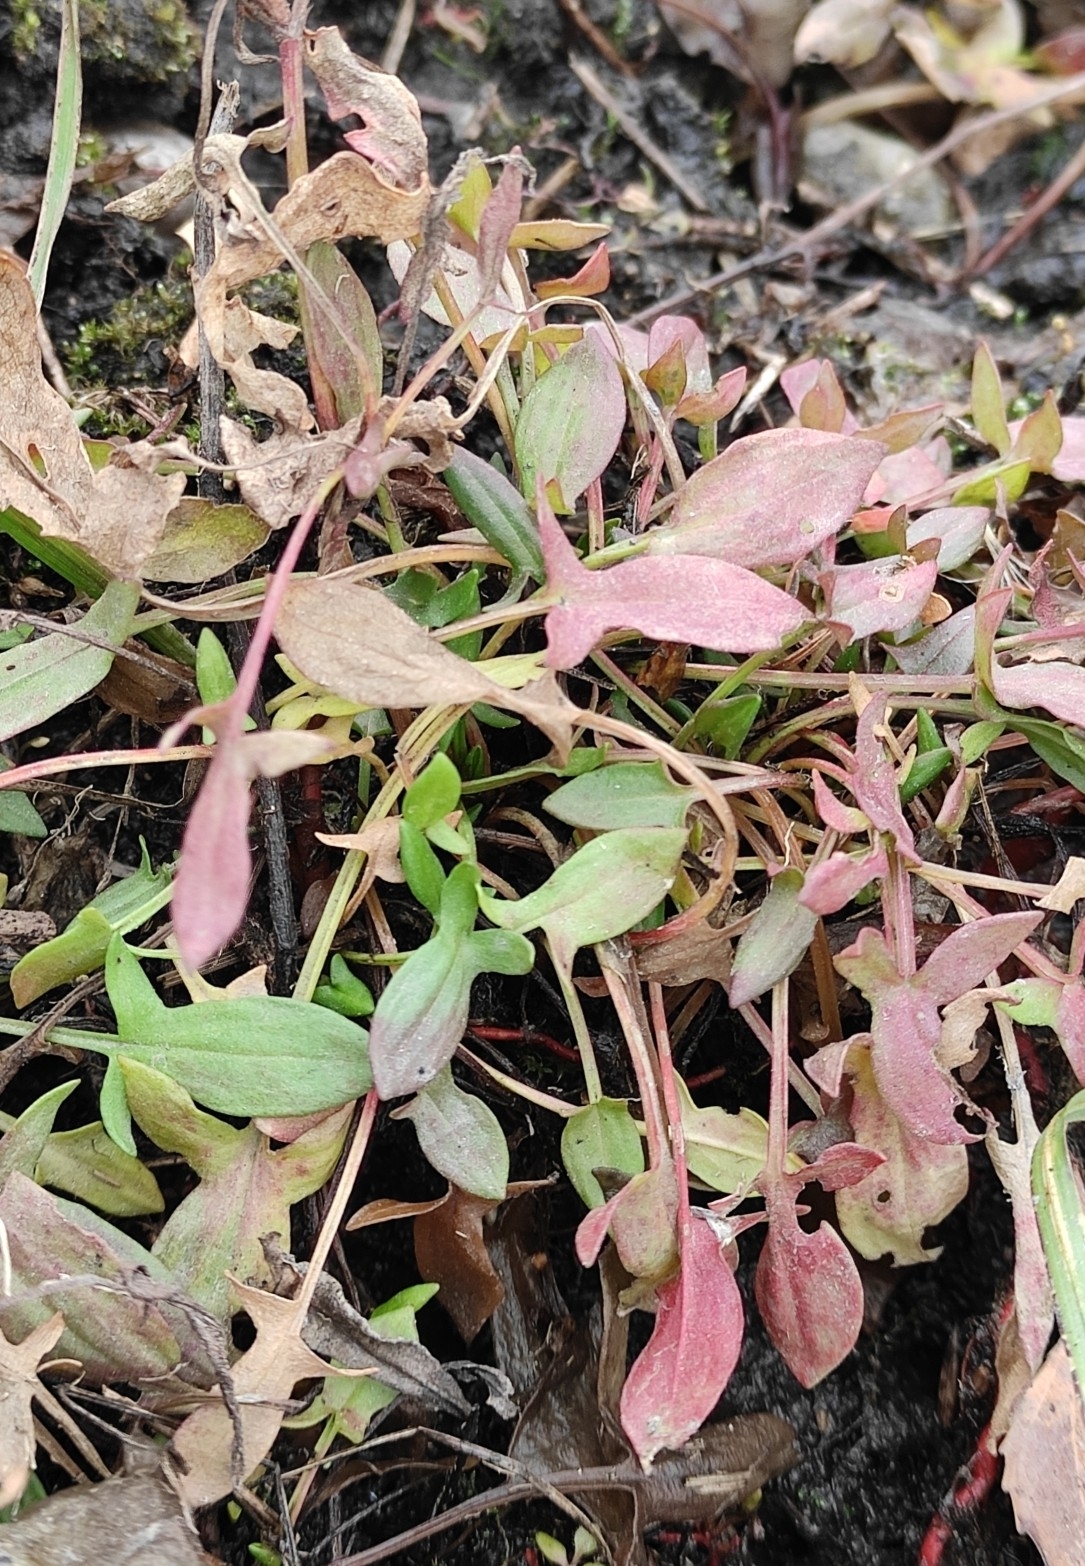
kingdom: Plantae
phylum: Tracheophyta
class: Magnoliopsida
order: Caryophyllales
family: Polygonaceae
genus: Rumex
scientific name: Rumex acetosella
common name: Common sheep sorrel
